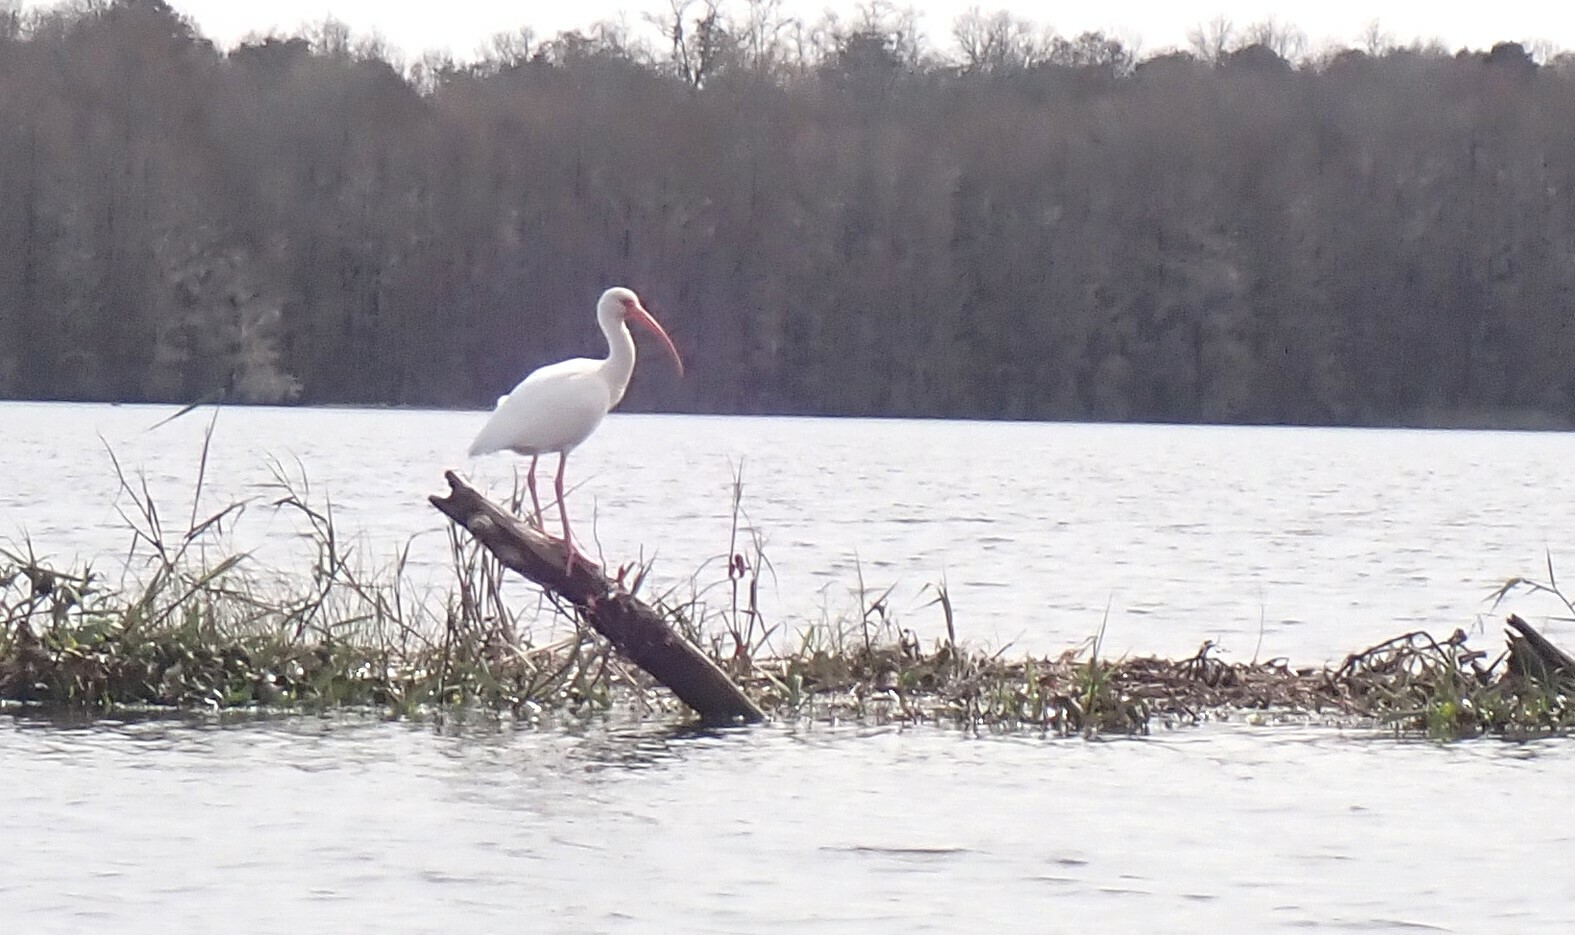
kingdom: Animalia
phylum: Chordata
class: Aves
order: Pelecaniformes
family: Threskiornithidae
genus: Eudocimus
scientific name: Eudocimus albus
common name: White ibis
